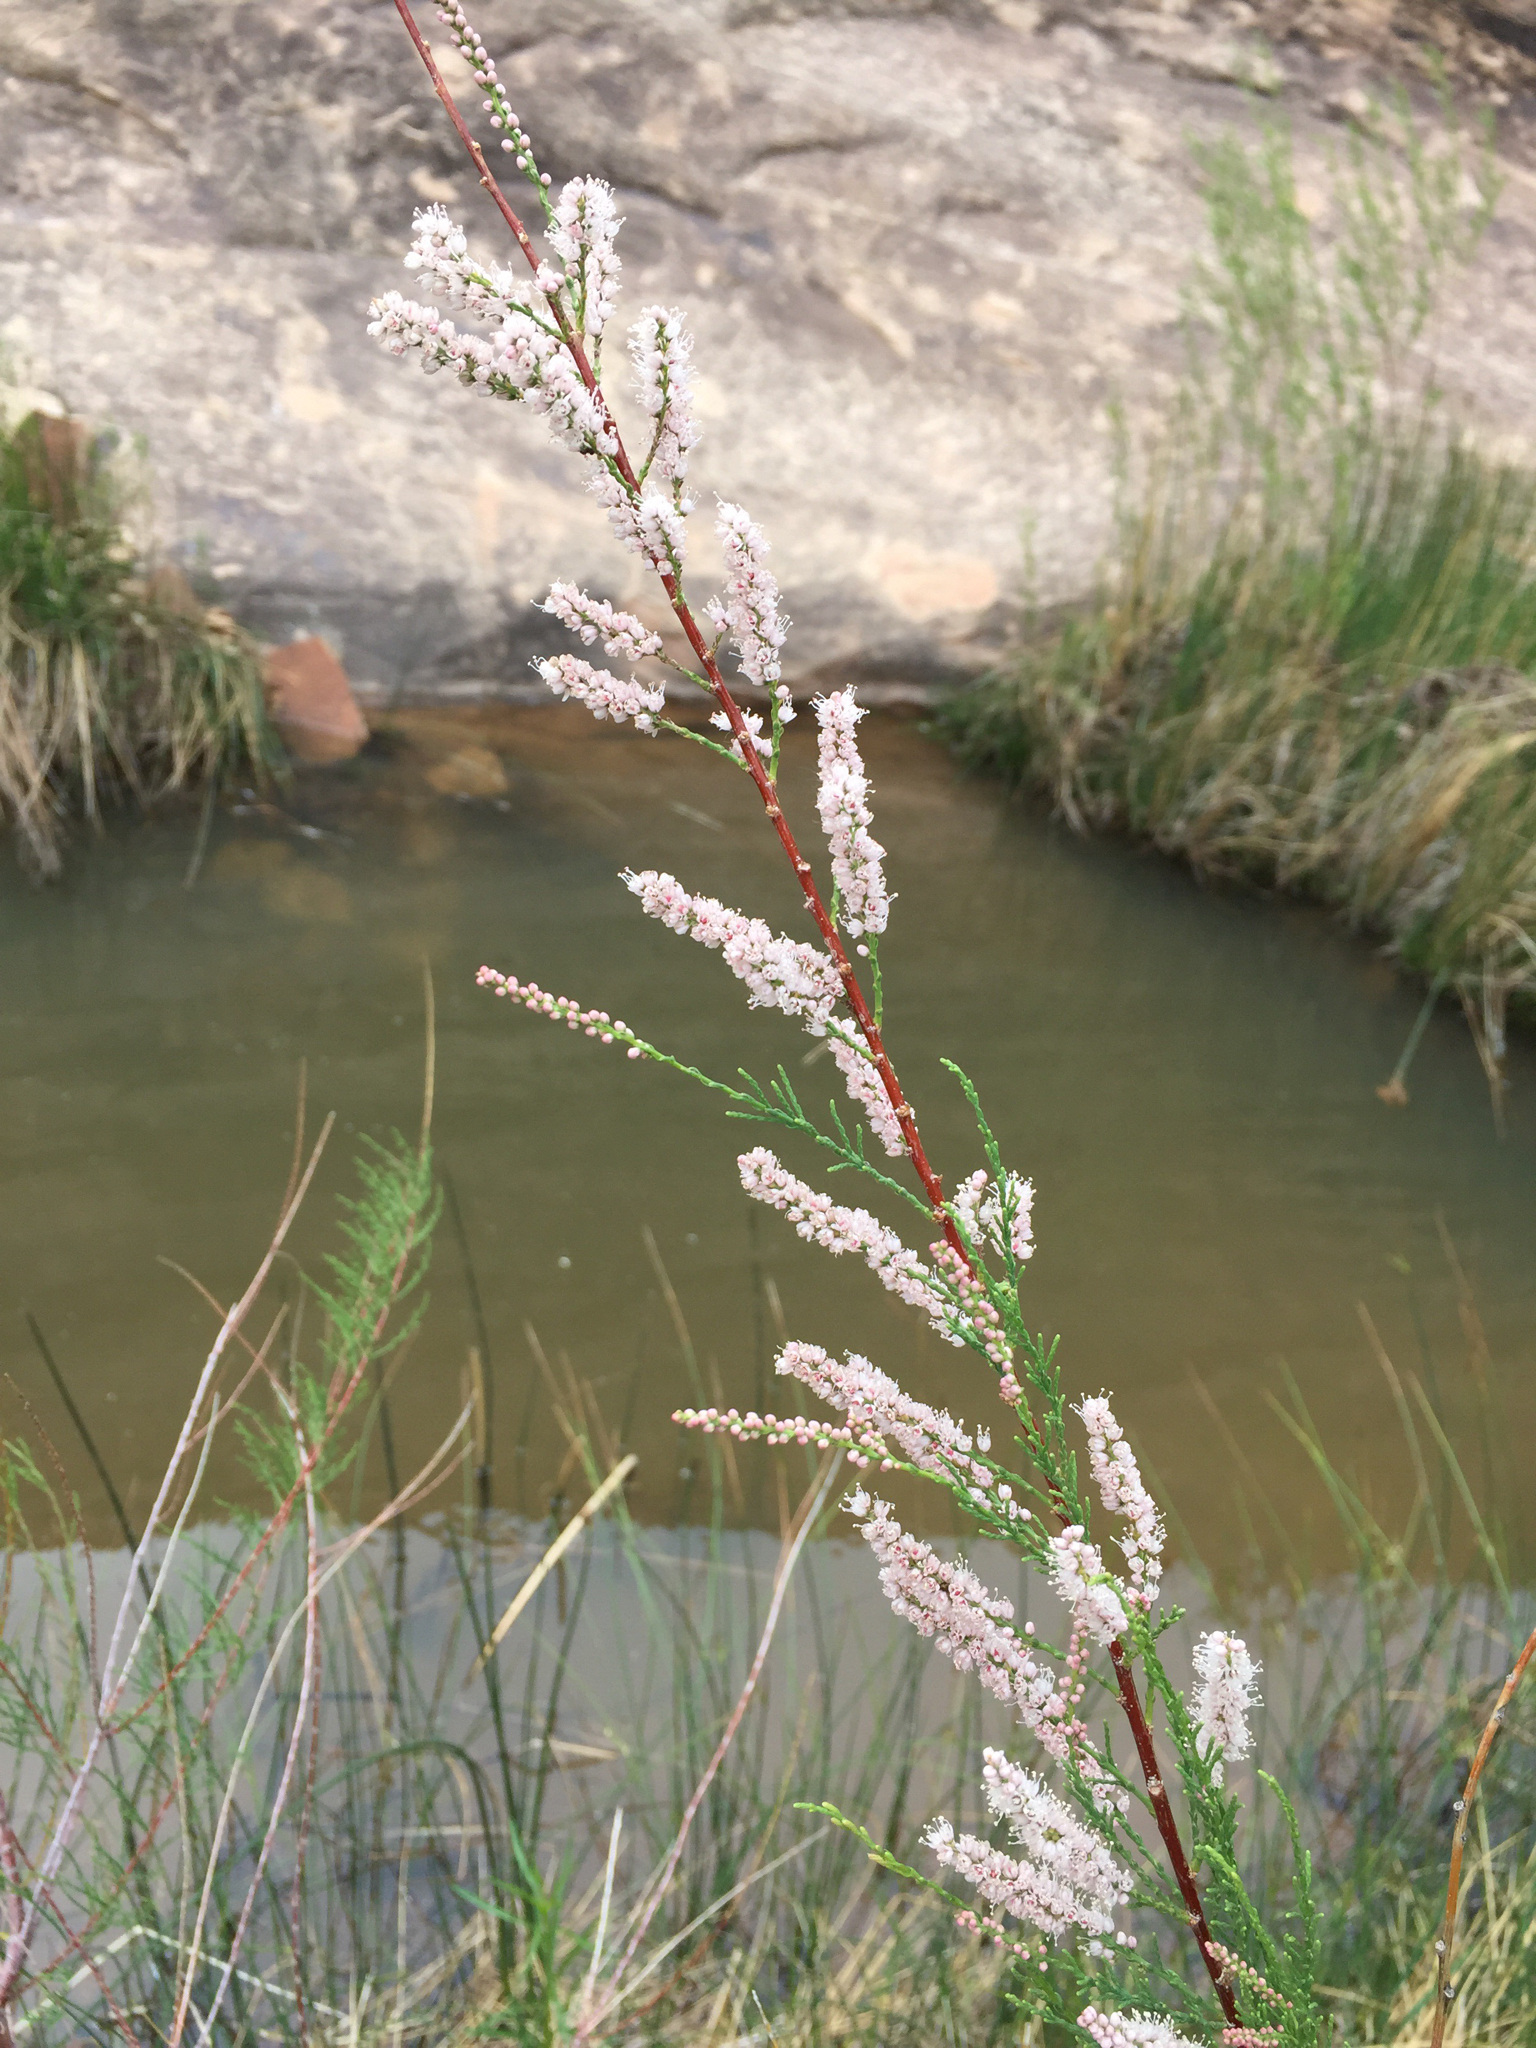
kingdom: Plantae
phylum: Tracheophyta
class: Magnoliopsida
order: Caryophyllales
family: Tamaricaceae
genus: Tamarix
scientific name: Tamarix ramosissima
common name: Pink tamarisk
